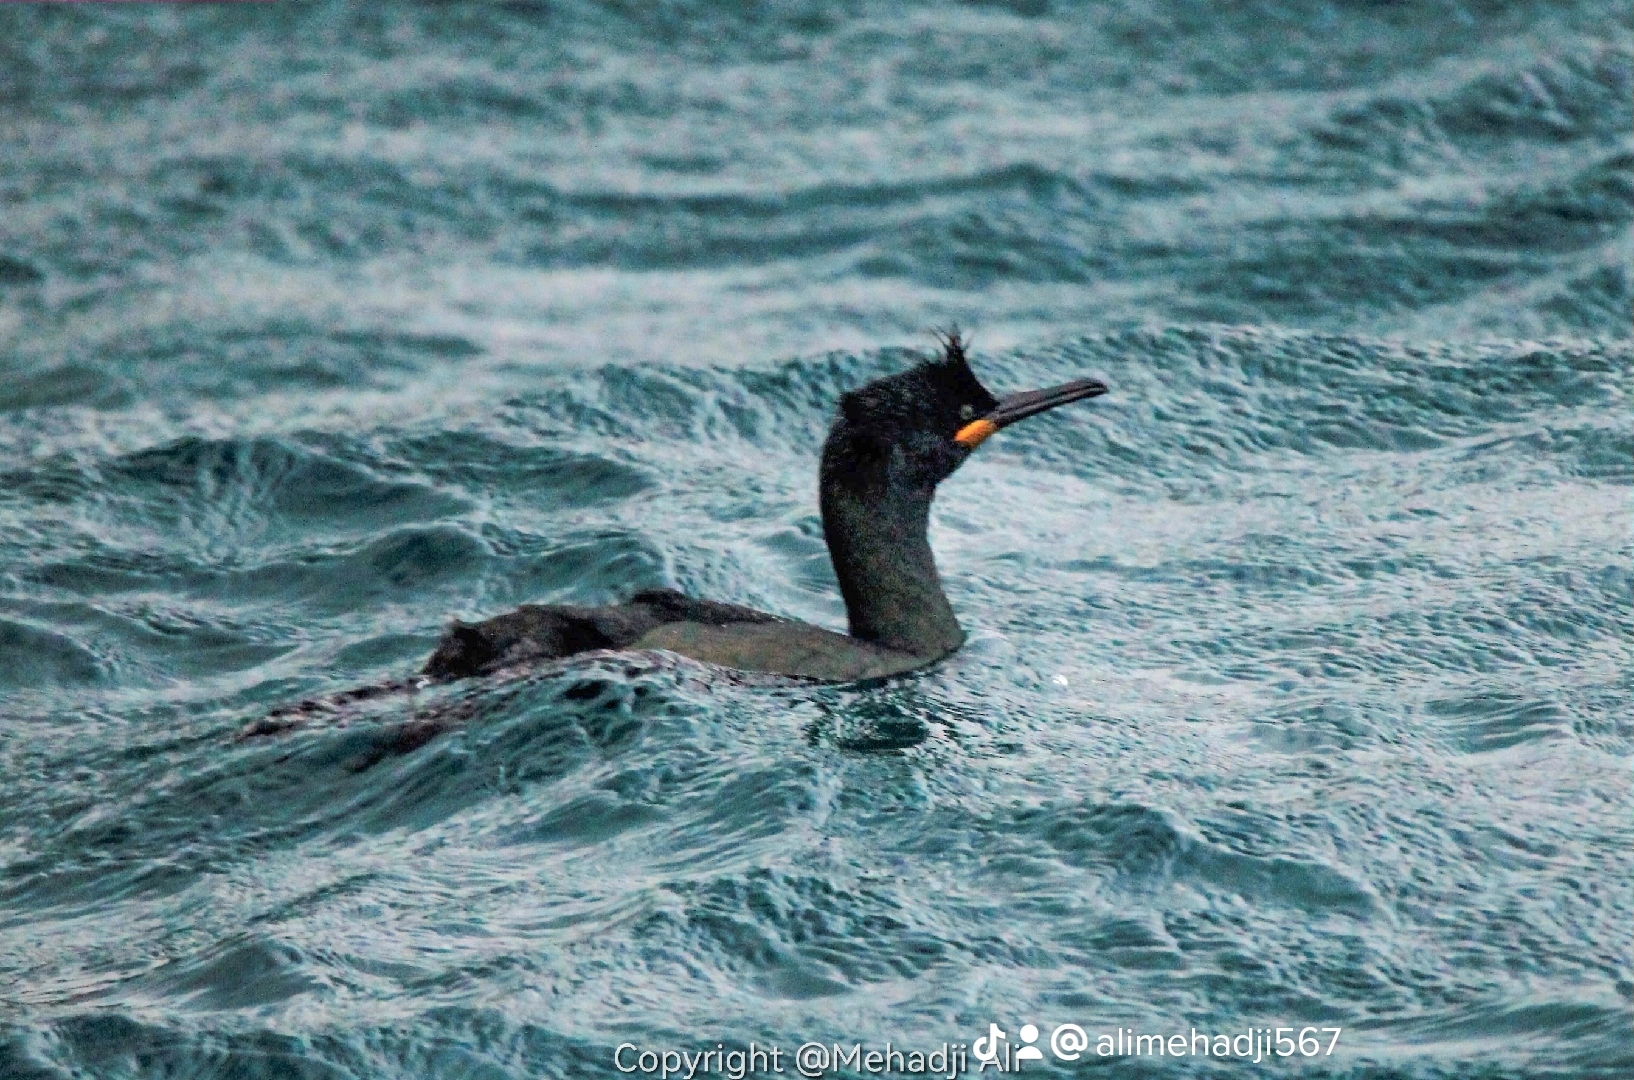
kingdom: Animalia
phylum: Chordata
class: Aves
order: Suliformes
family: Phalacrocoracidae
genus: Phalacrocorax
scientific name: Phalacrocorax aristotelis
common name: European shag
